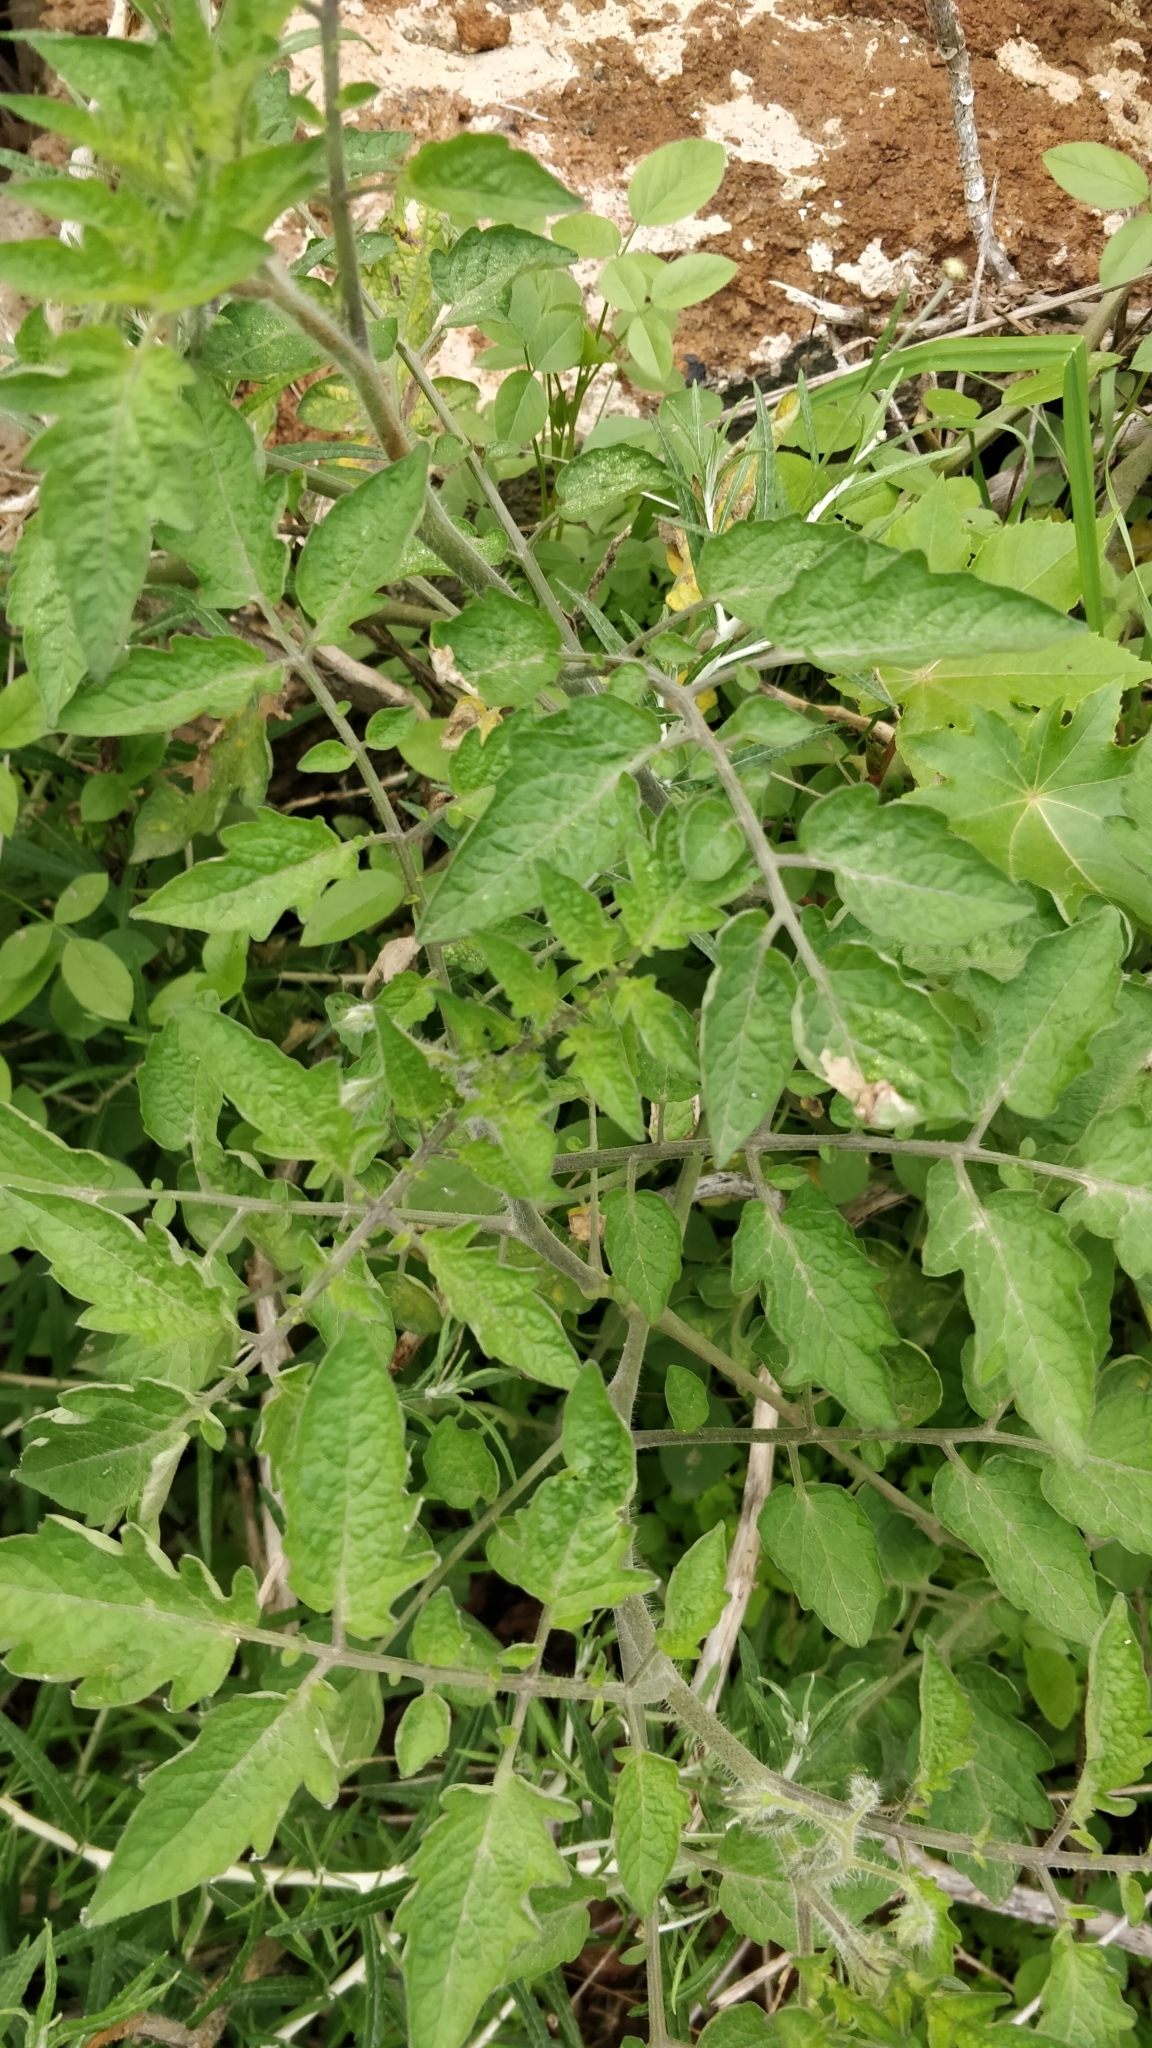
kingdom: Plantae
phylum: Tracheophyta
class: Magnoliopsida
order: Solanales
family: Solanaceae
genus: Solanum
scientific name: Solanum lycopersicum
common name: Garden tomato
